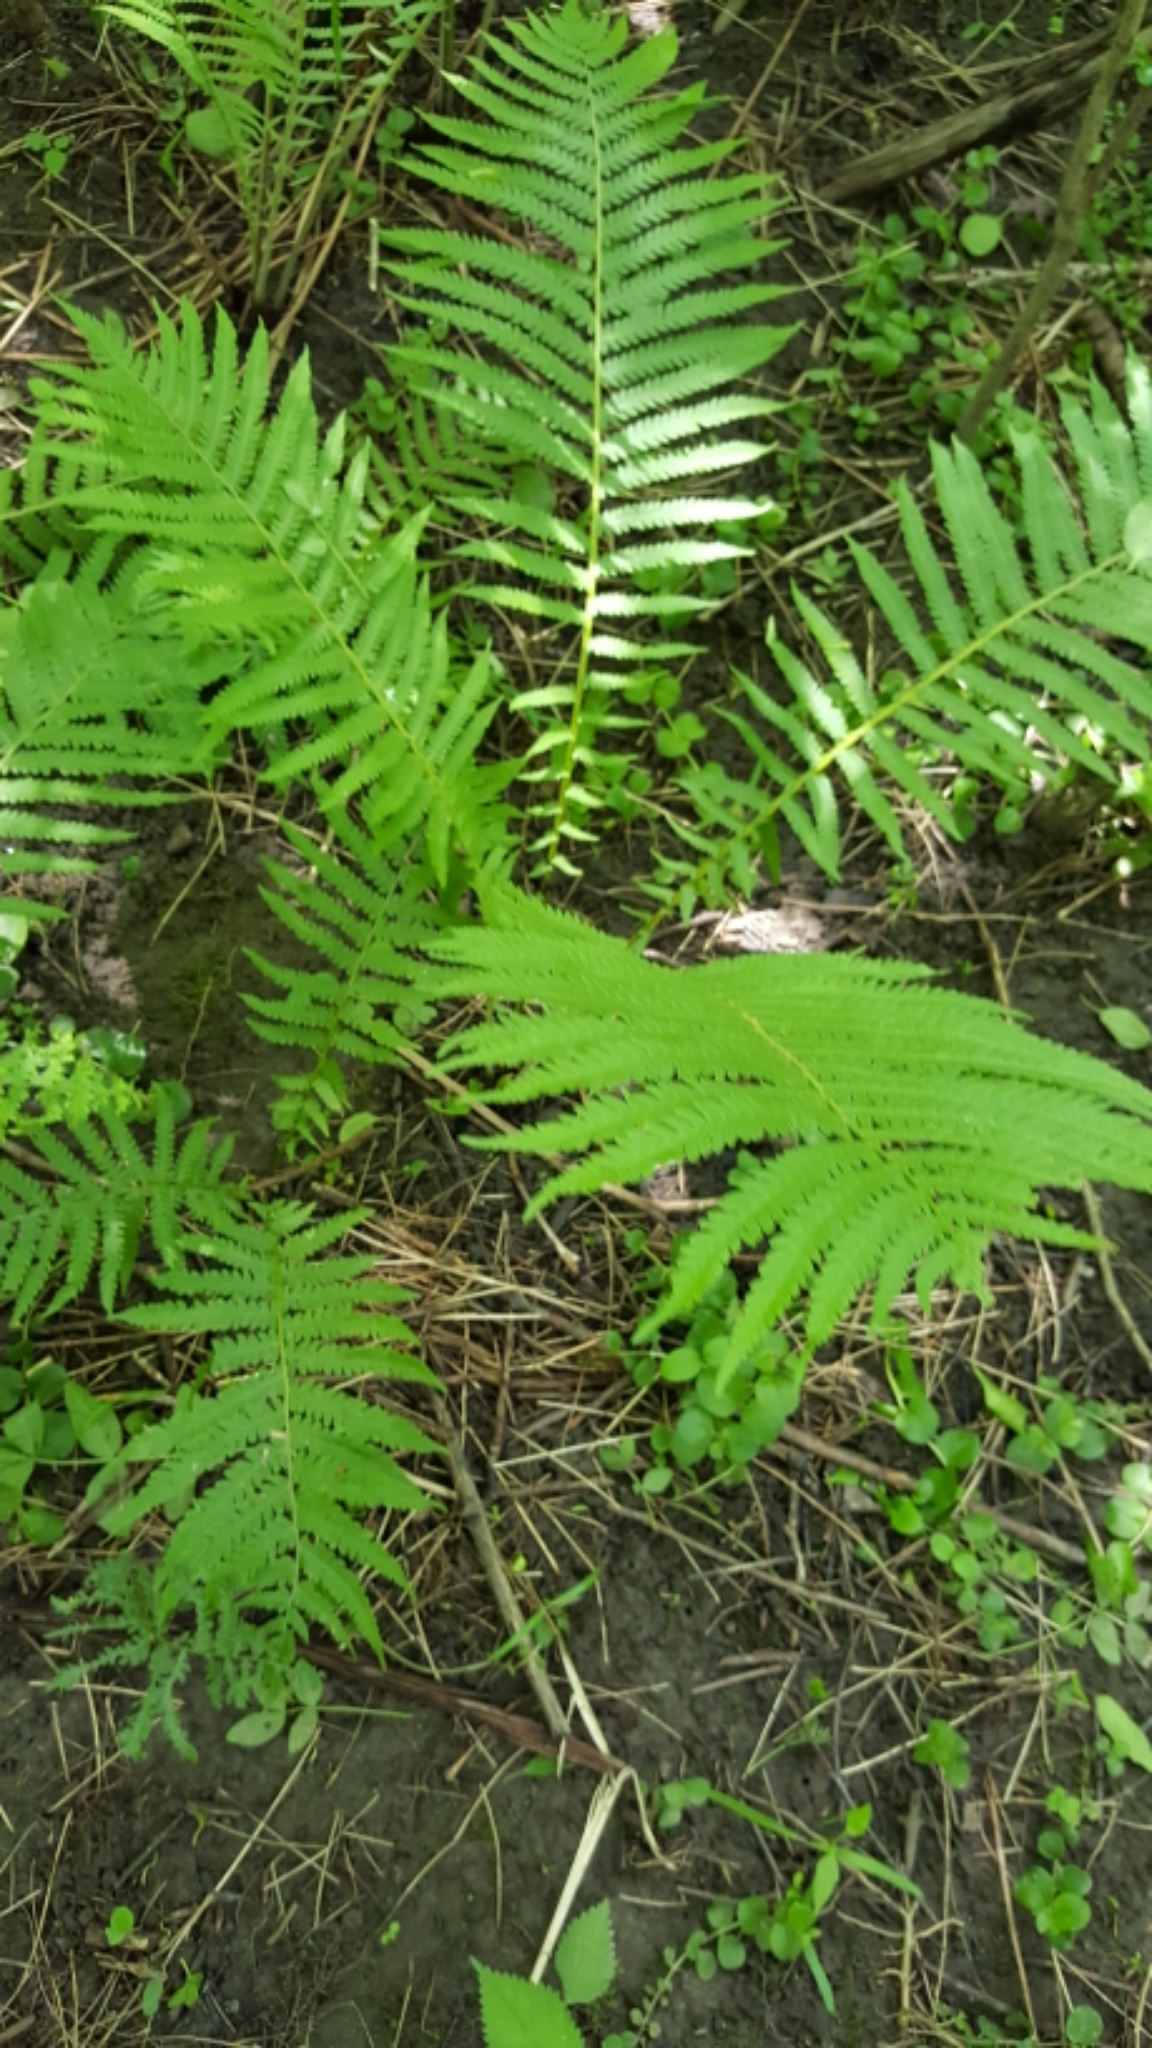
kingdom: Plantae
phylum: Tracheophyta
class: Polypodiopsida
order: Polypodiales
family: Onocleaceae
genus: Matteuccia
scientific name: Matteuccia struthiopteris
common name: Ostrich fern
